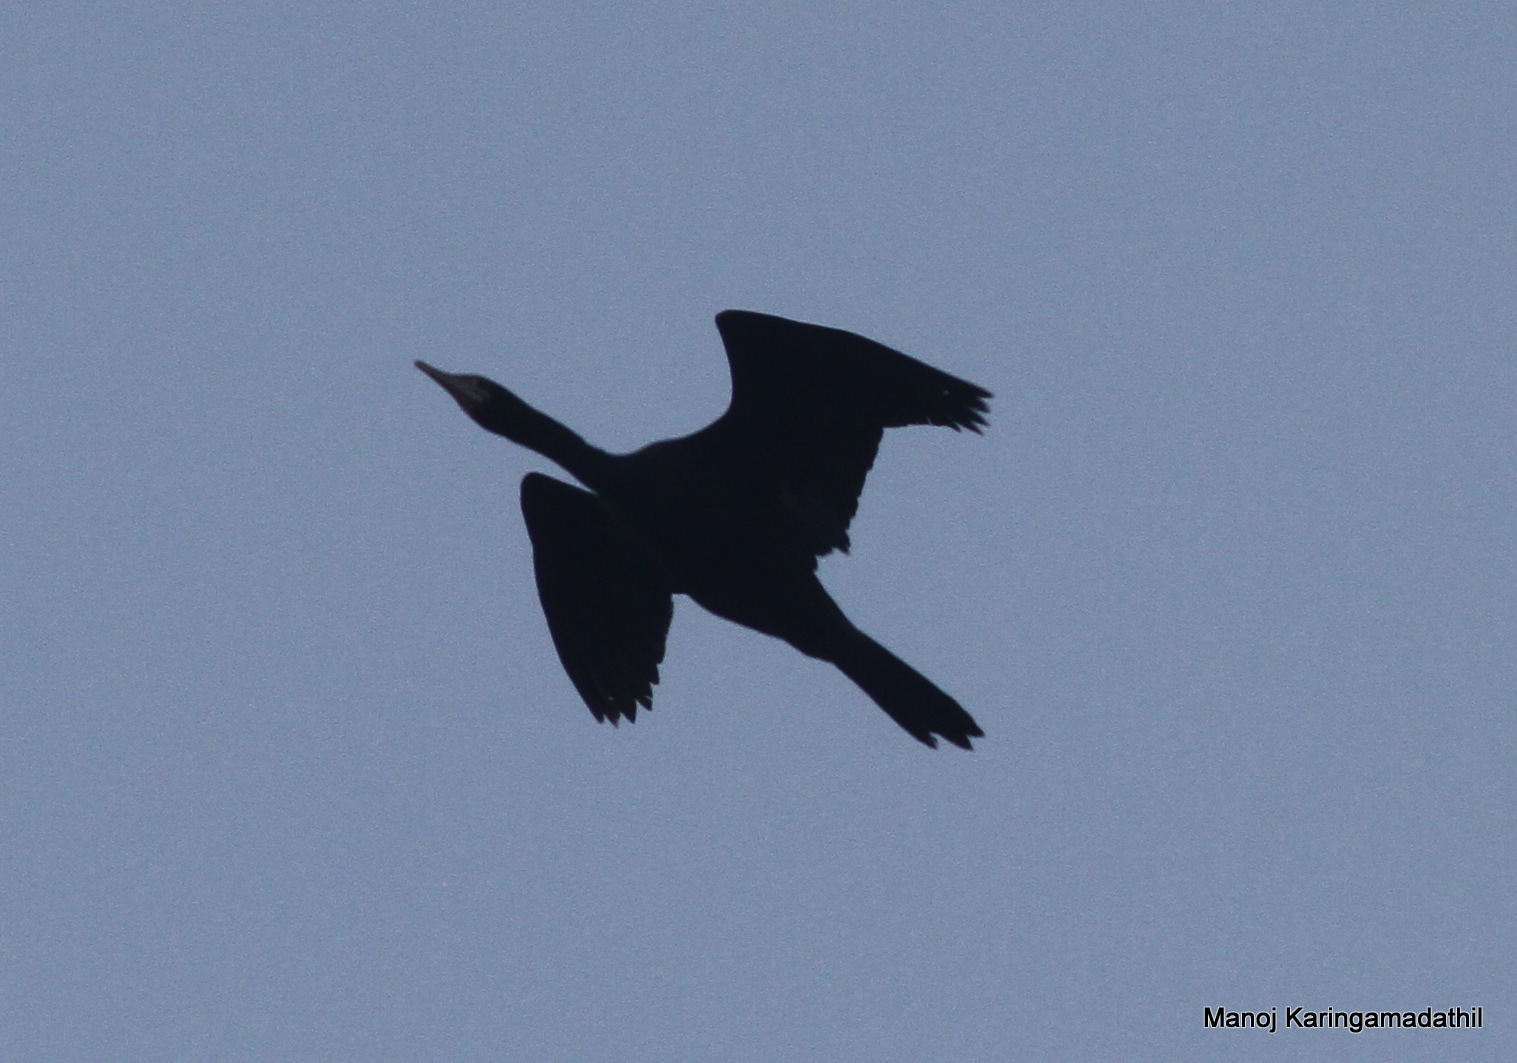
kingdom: Animalia
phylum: Chordata
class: Aves
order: Suliformes
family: Phalacrocoracidae
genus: Microcarbo
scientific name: Microcarbo niger
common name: Little cormorant
